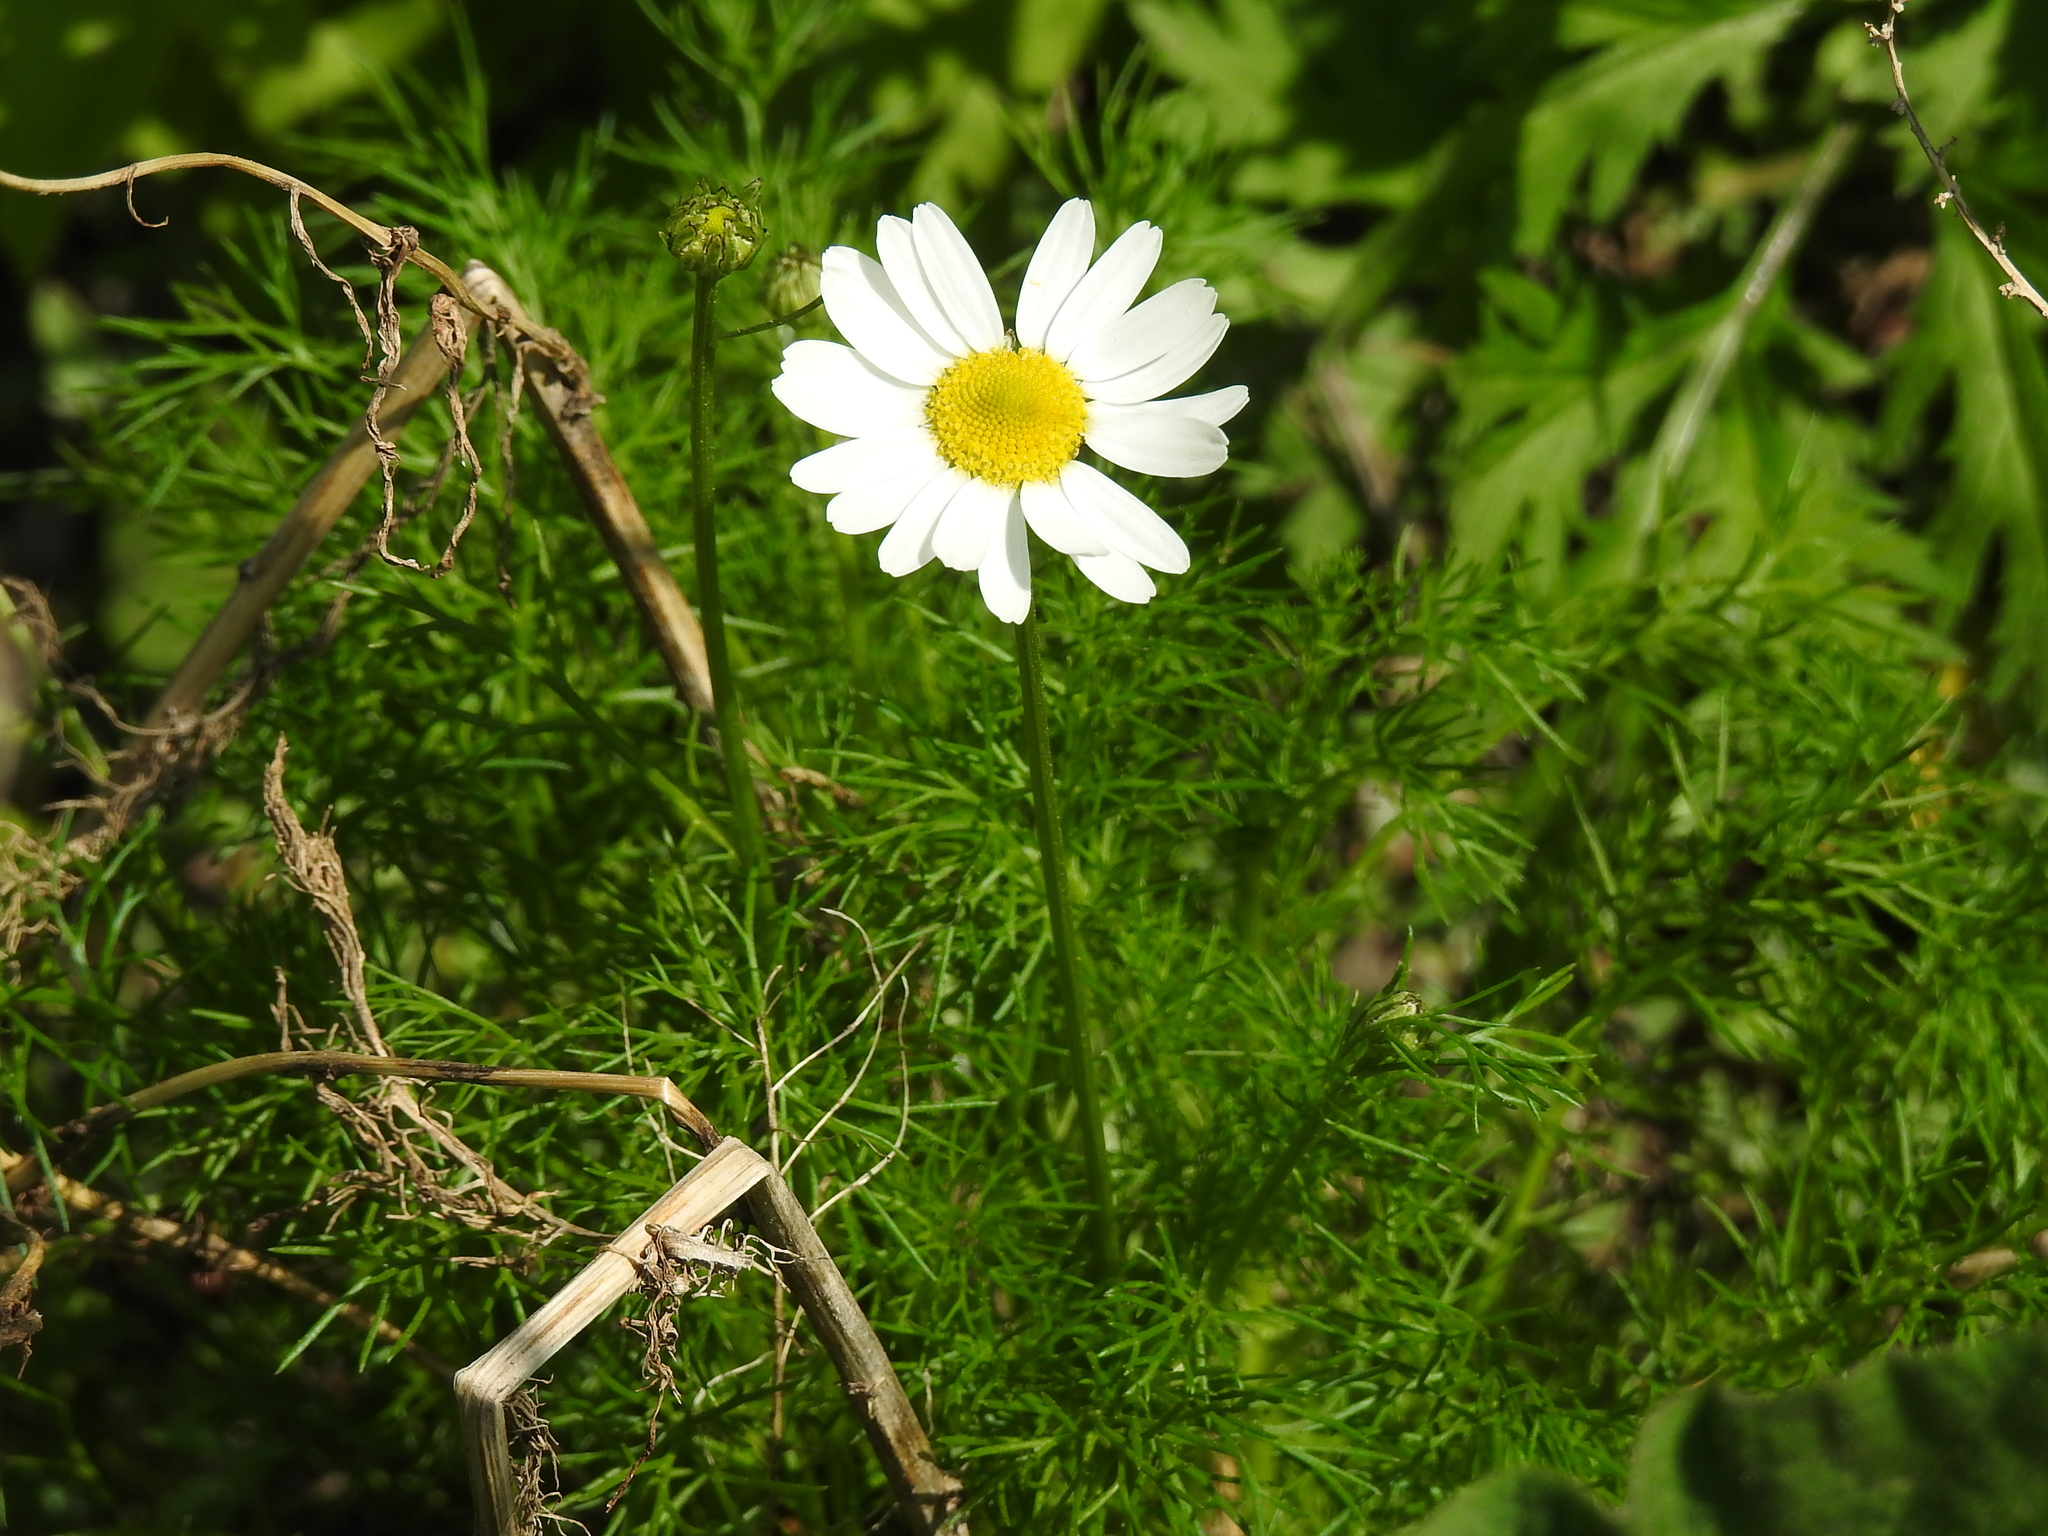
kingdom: Plantae
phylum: Tracheophyta
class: Magnoliopsida
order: Asterales
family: Asteraceae
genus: Tripleurospermum
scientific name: Tripleurospermum inodorum
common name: Scentless mayweed
